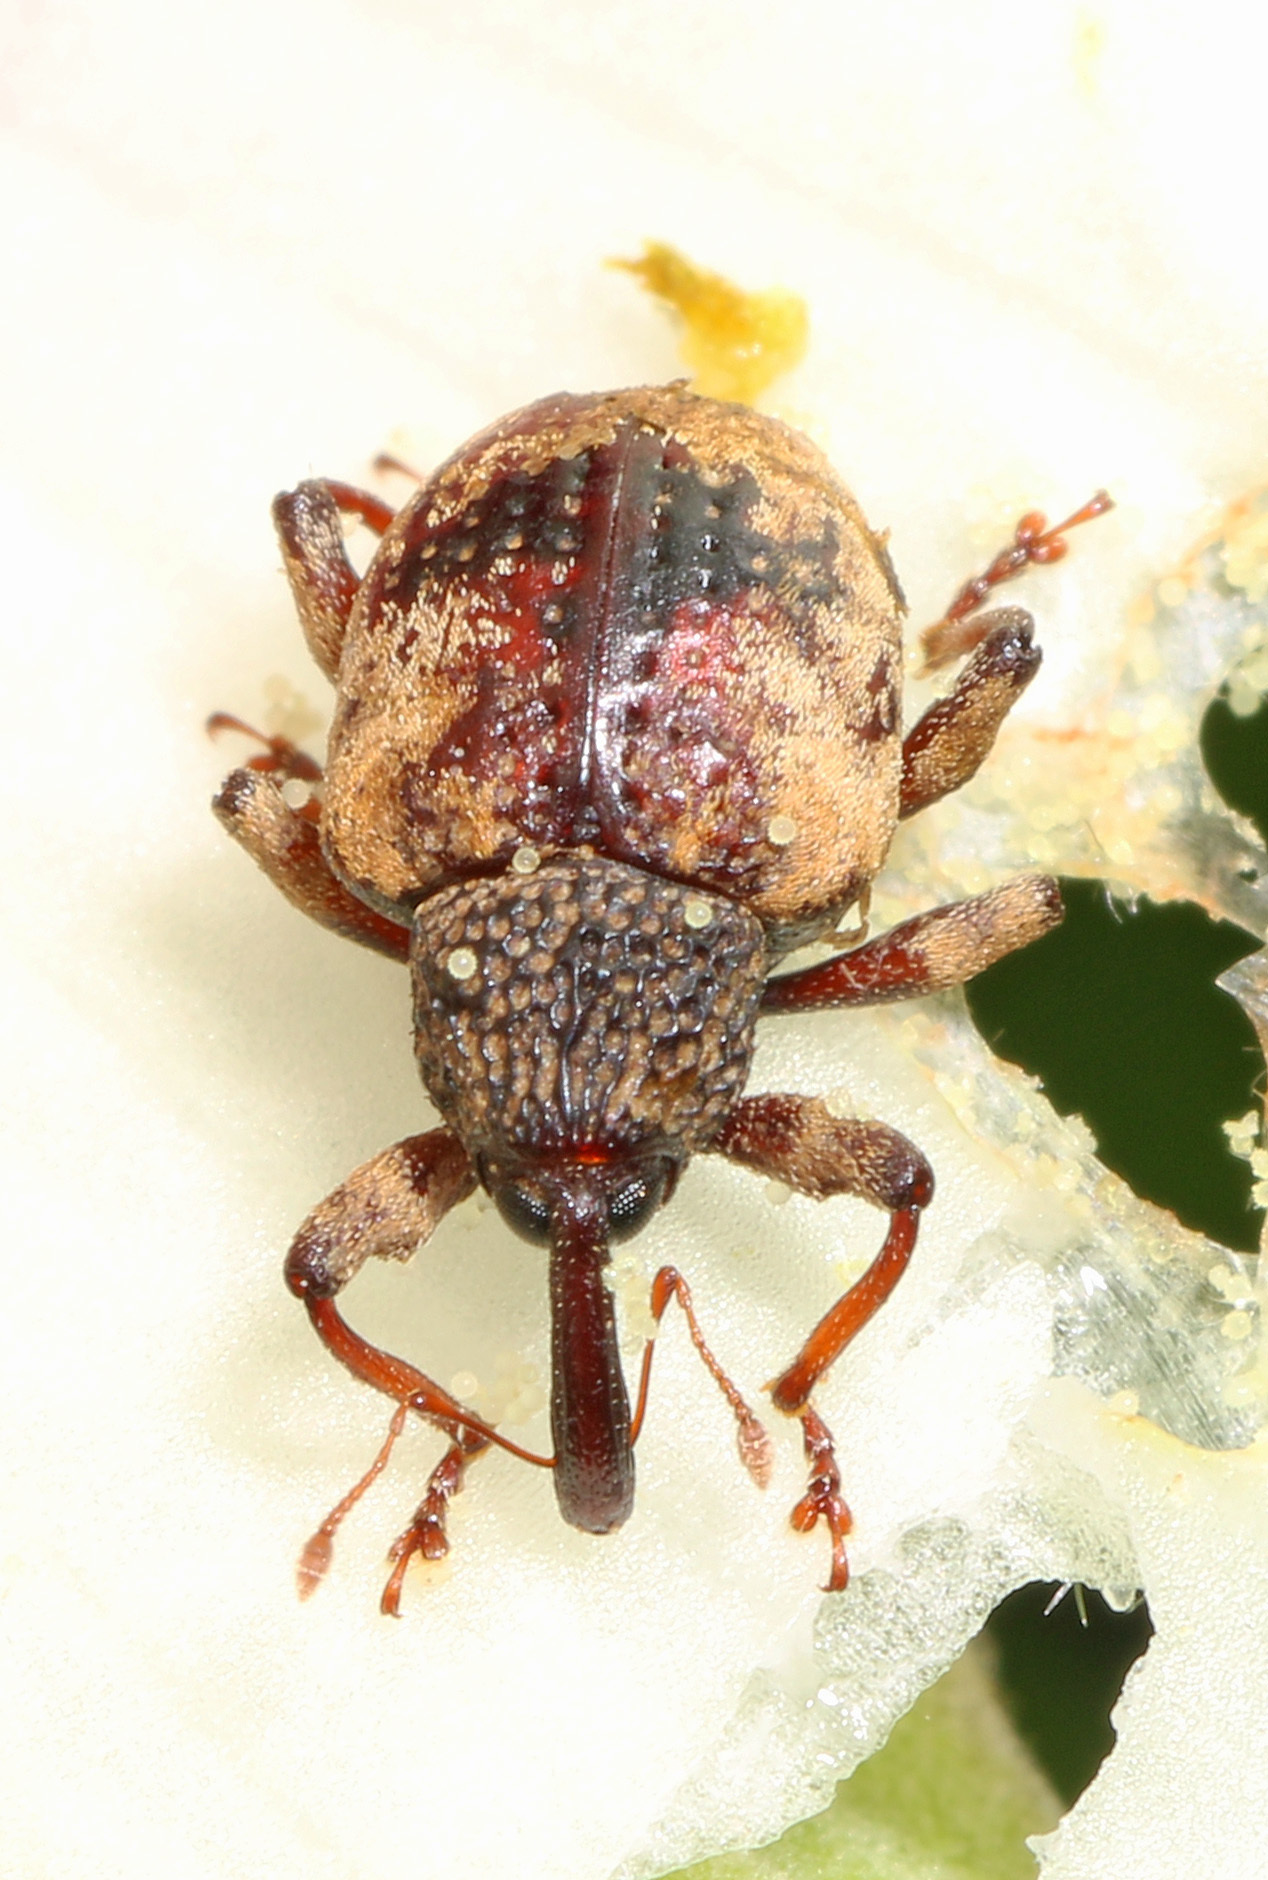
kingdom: Animalia
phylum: Arthropoda
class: Insecta
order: Coleoptera
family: Curculionidae
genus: Conotrachelus
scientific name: Conotrachelus fissunguis
